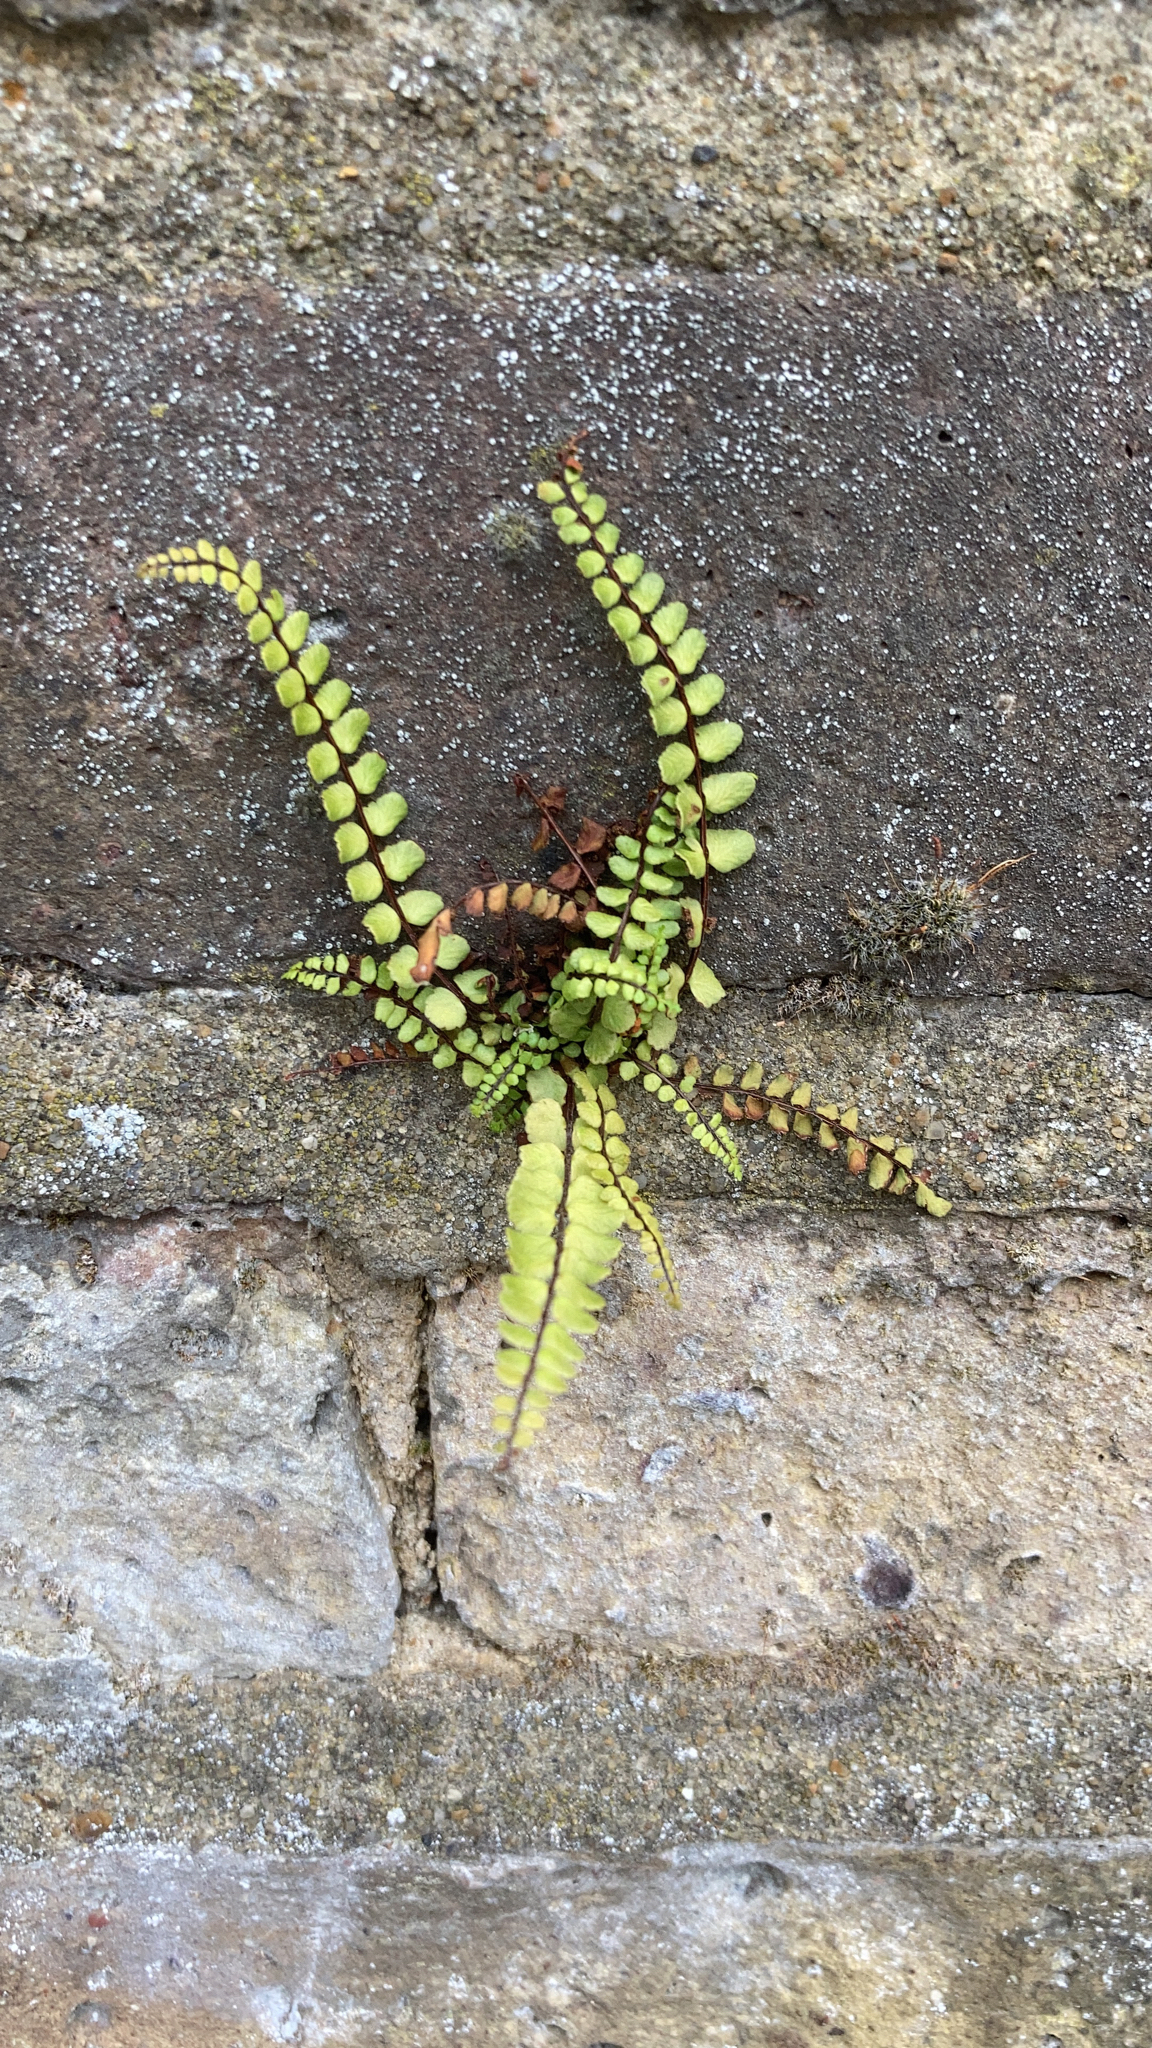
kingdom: Plantae
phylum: Tracheophyta
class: Polypodiopsida
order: Polypodiales
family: Aspleniaceae
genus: Asplenium
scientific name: Asplenium trichomanes
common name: Maidenhair spleenwort
